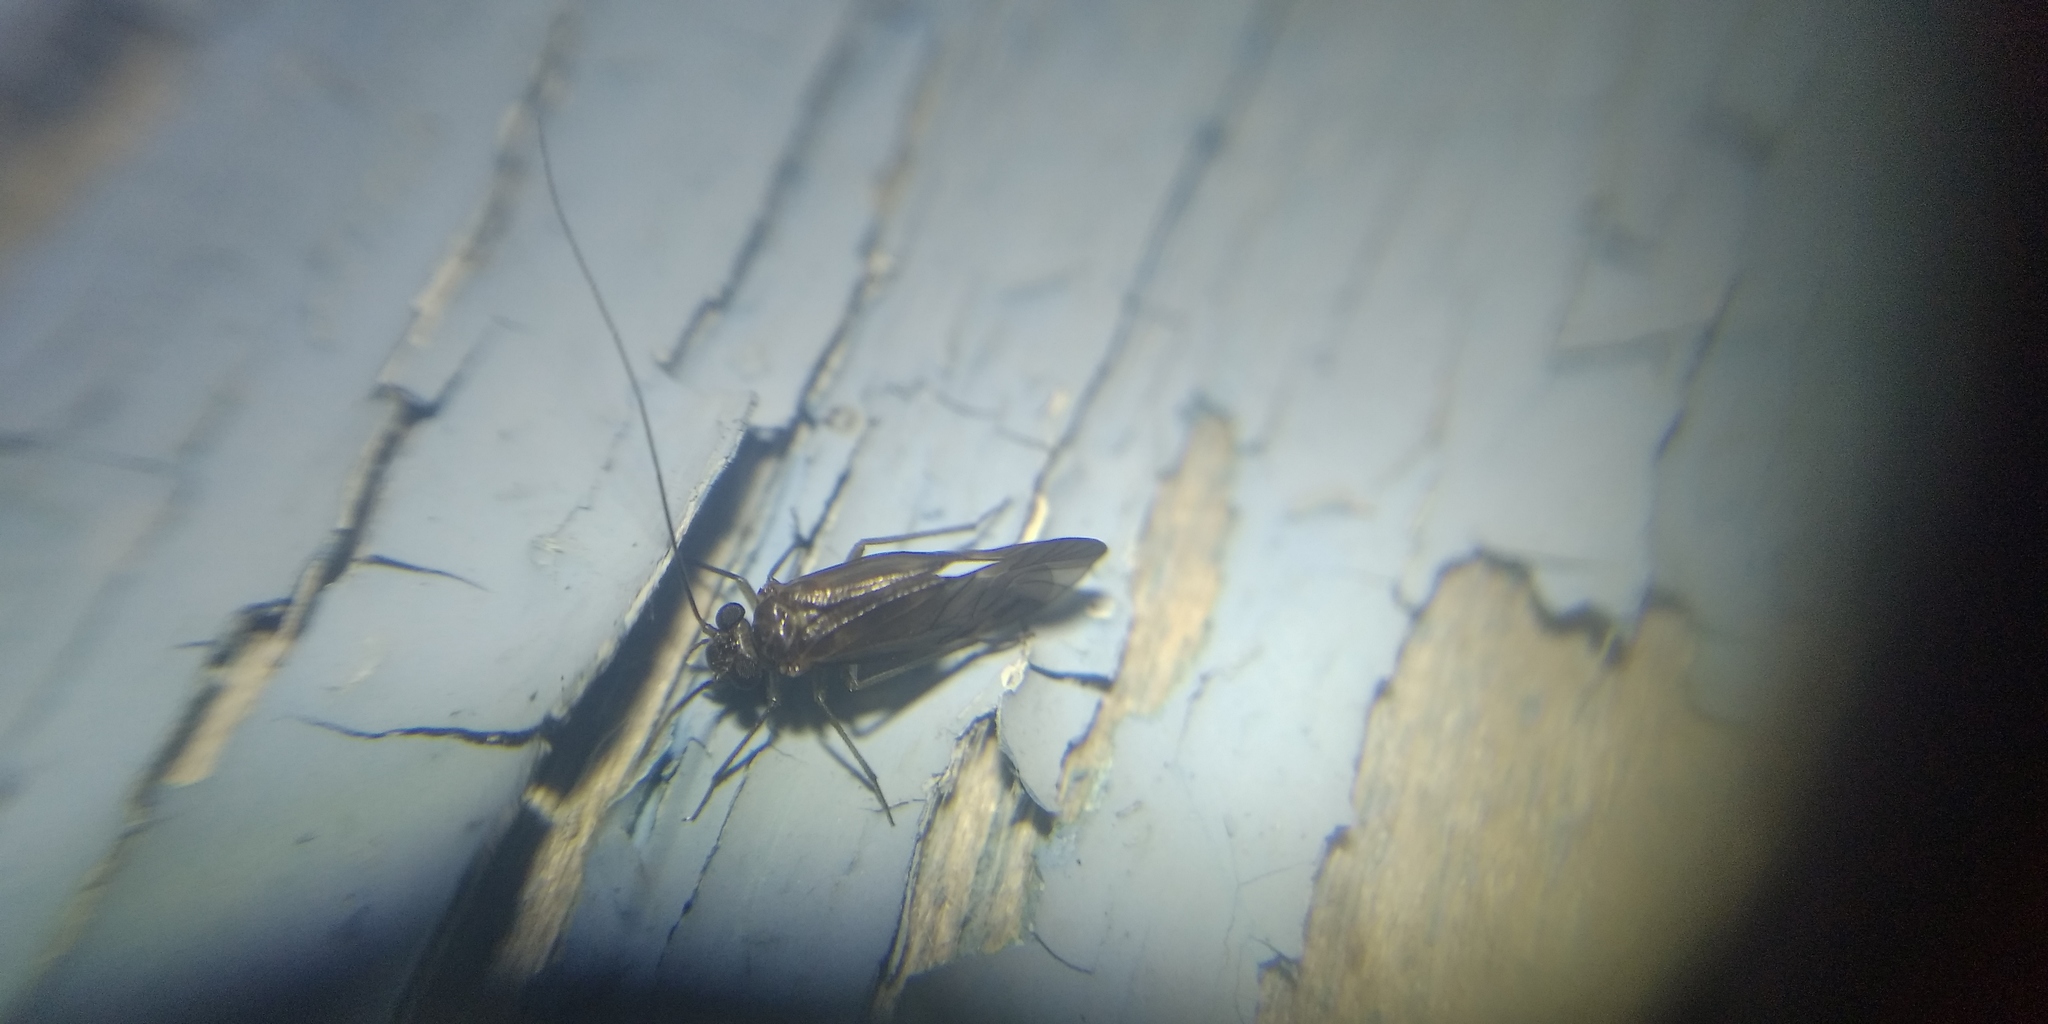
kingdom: Animalia
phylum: Arthropoda
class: Insecta
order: Psocodea
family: Psocidae
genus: Metylophorus
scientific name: Metylophorus nebulosus
